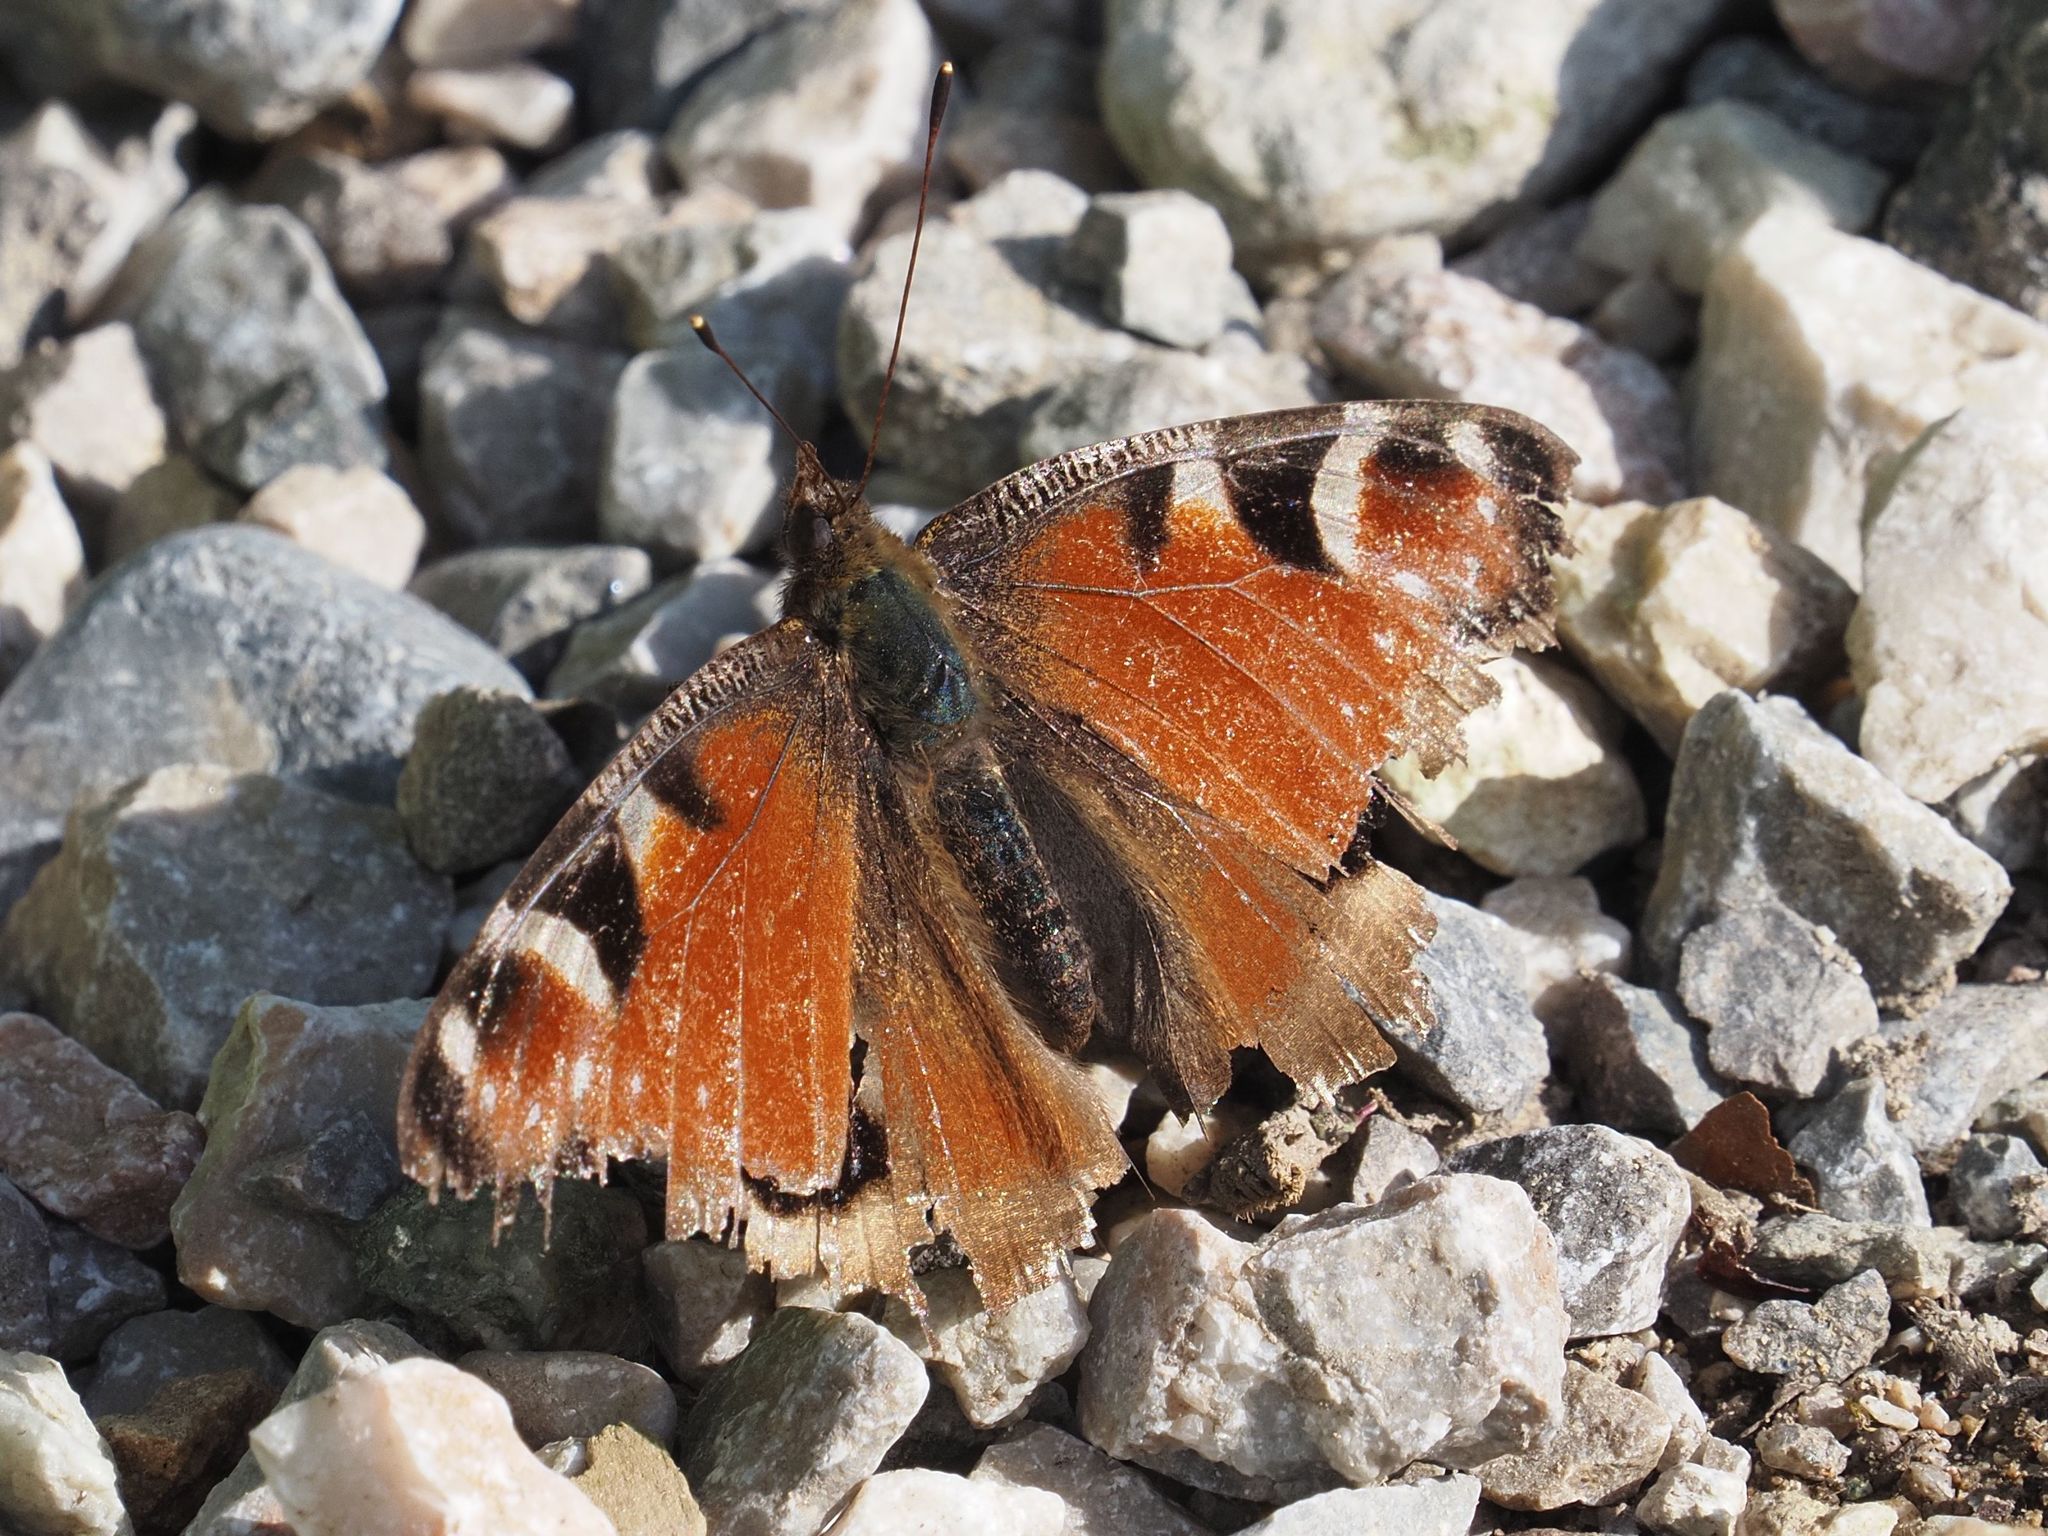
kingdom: Animalia
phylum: Arthropoda
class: Insecta
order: Lepidoptera
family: Nymphalidae
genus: Aglais
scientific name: Aglais io
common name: Peacock
